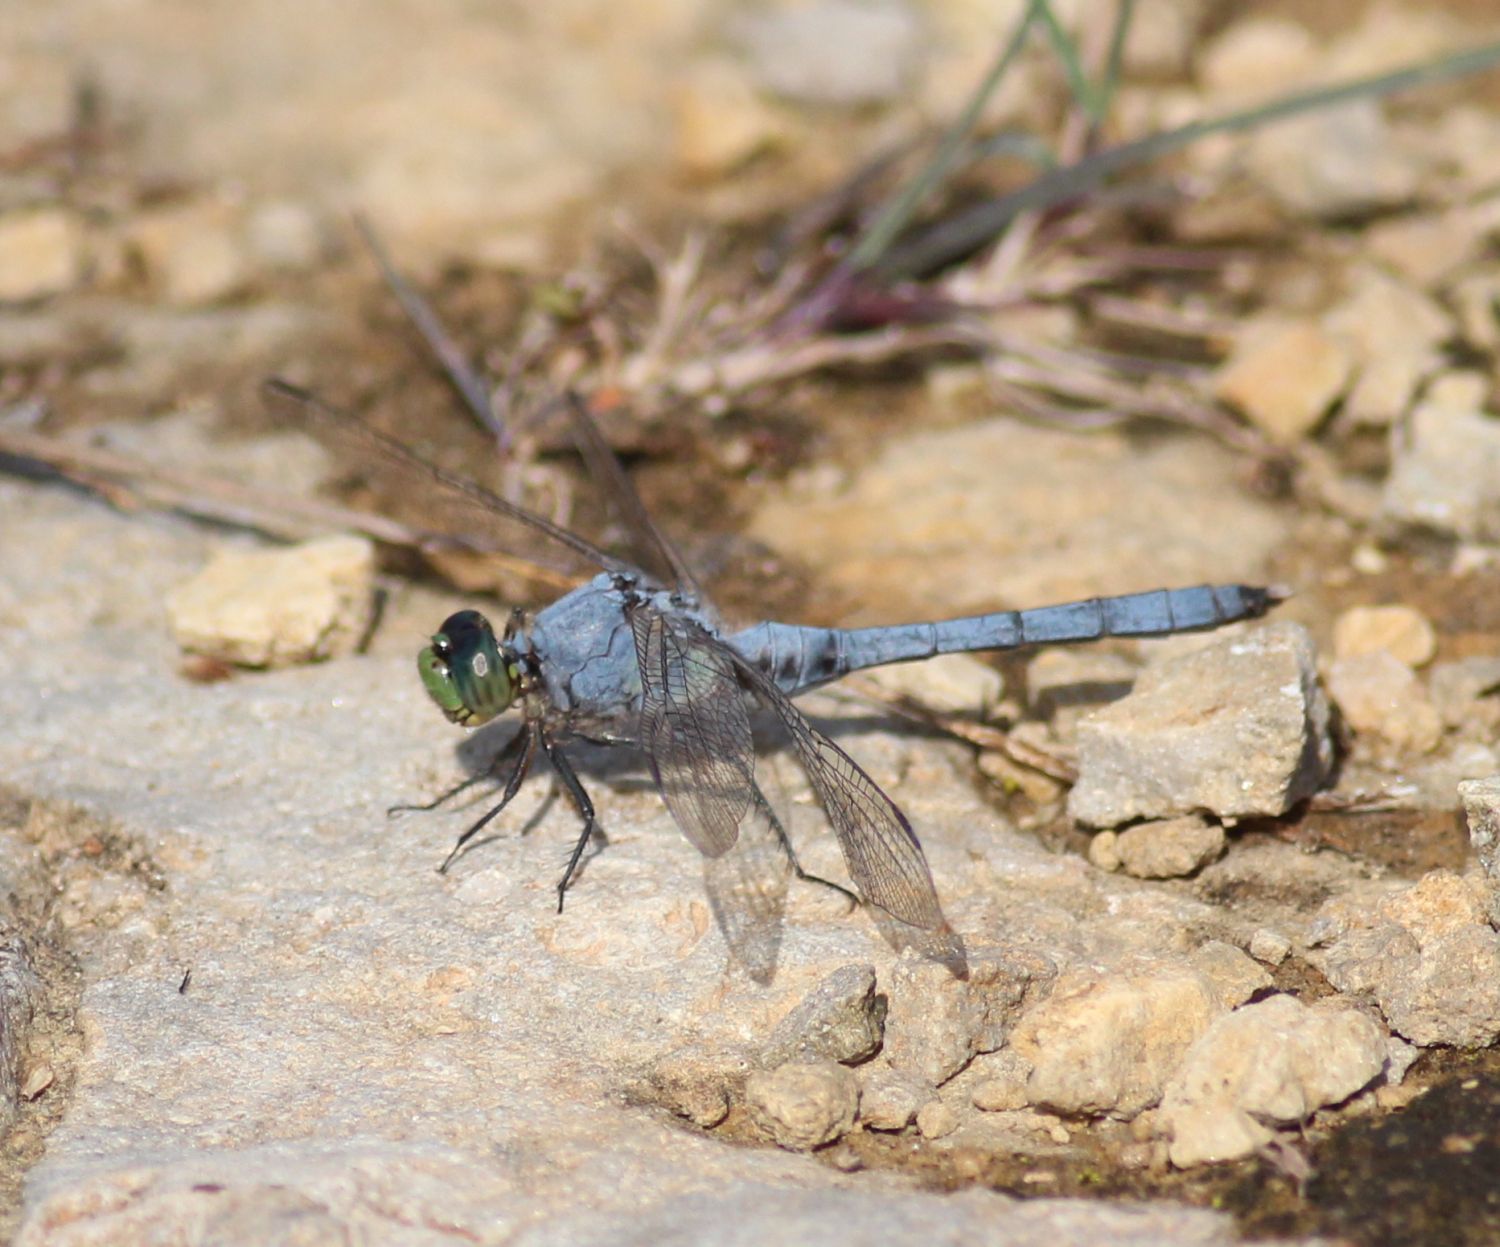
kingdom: Animalia
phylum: Arthropoda
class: Insecta
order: Odonata
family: Libellulidae
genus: Erythemis
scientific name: Erythemis simplicicollis
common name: Eastern pondhawk
